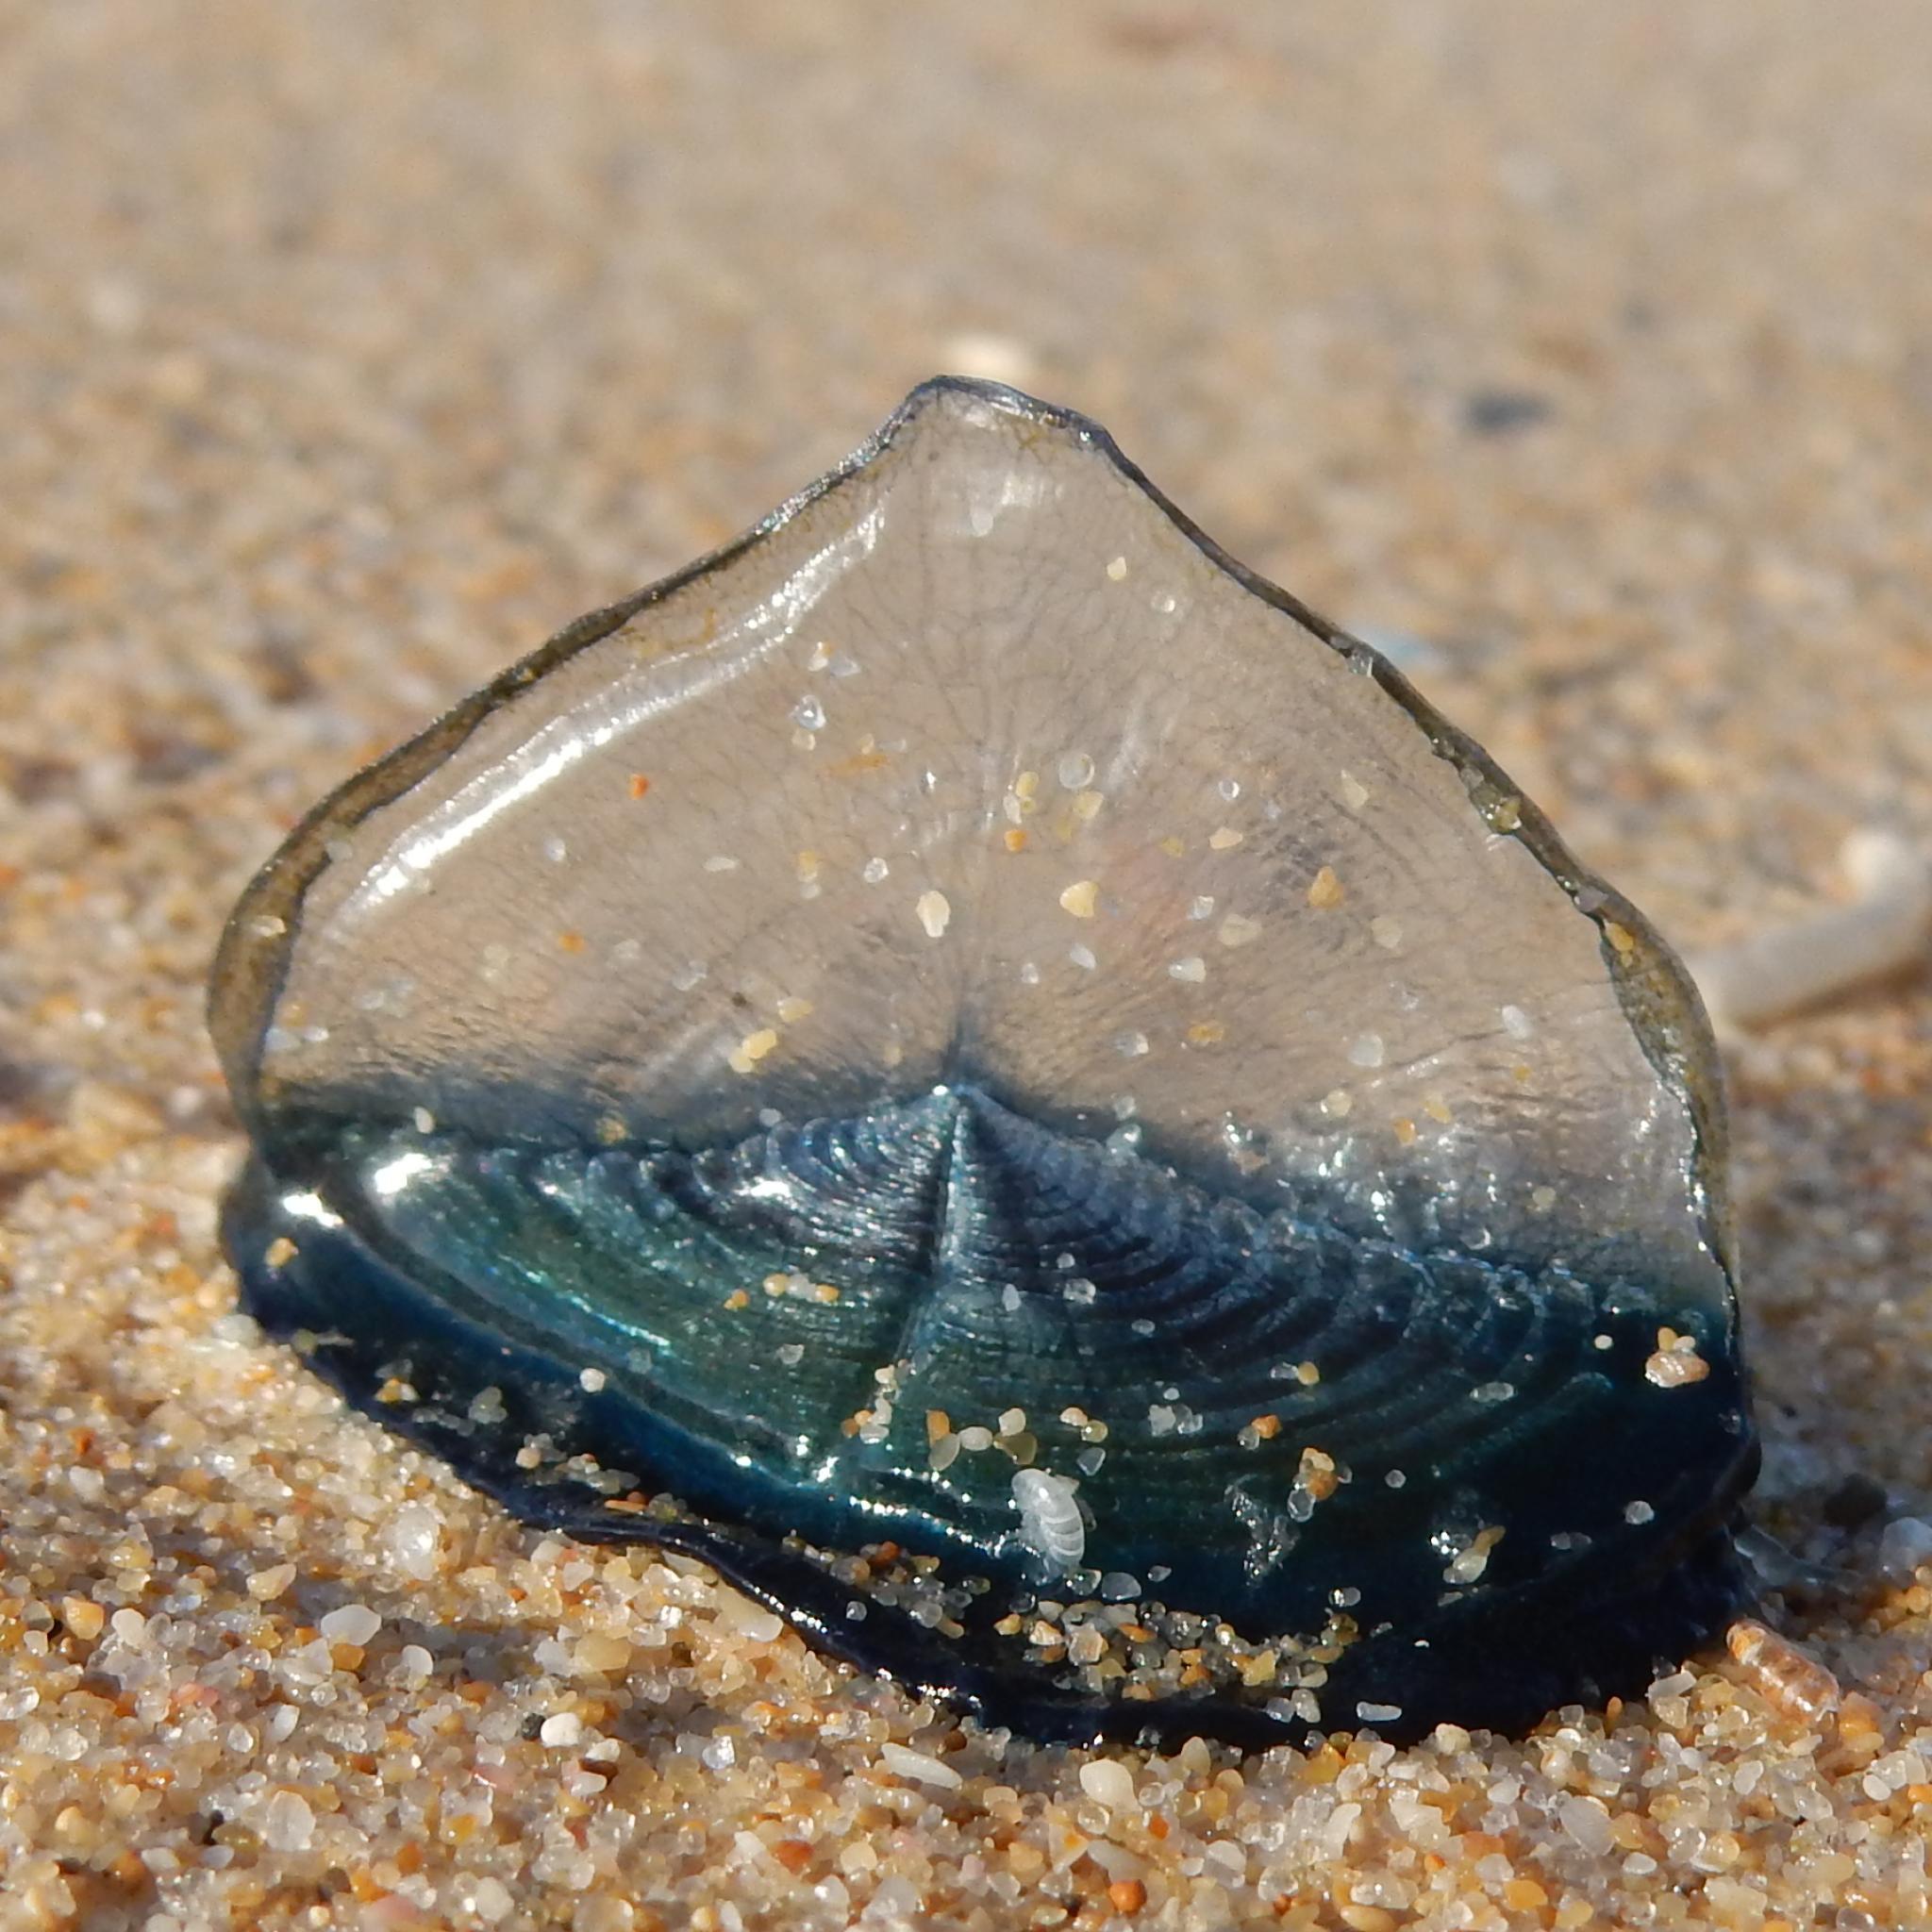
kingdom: Animalia
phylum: Cnidaria
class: Hydrozoa
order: Anthoathecata
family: Porpitidae
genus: Velella
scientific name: Velella velella
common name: By-the-wind-sailor
